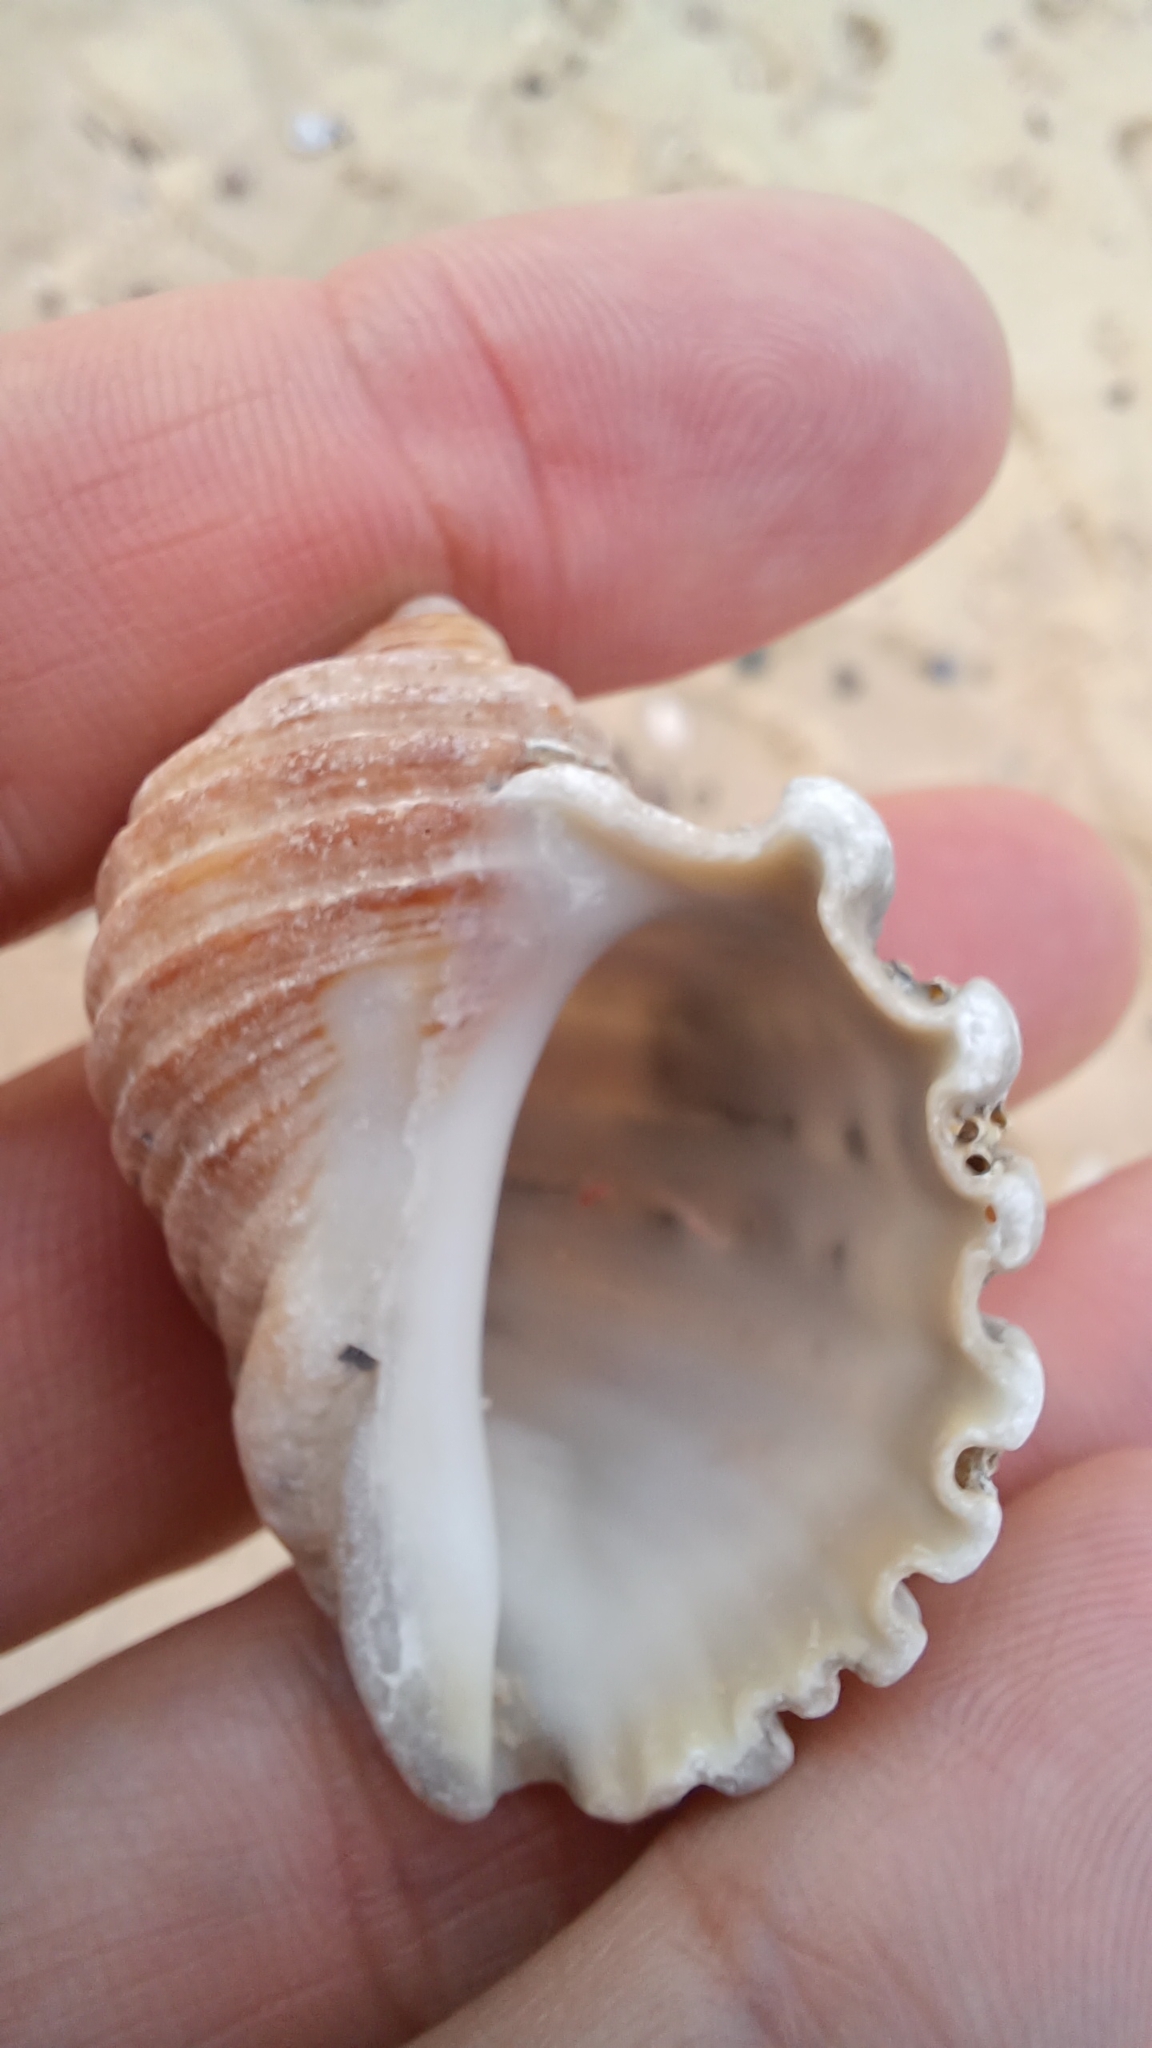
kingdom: Animalia
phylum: Mollusca
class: Gastropoda
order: Neogastropoda
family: Muricidae
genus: Dicathais
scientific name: Dicathais orbita
